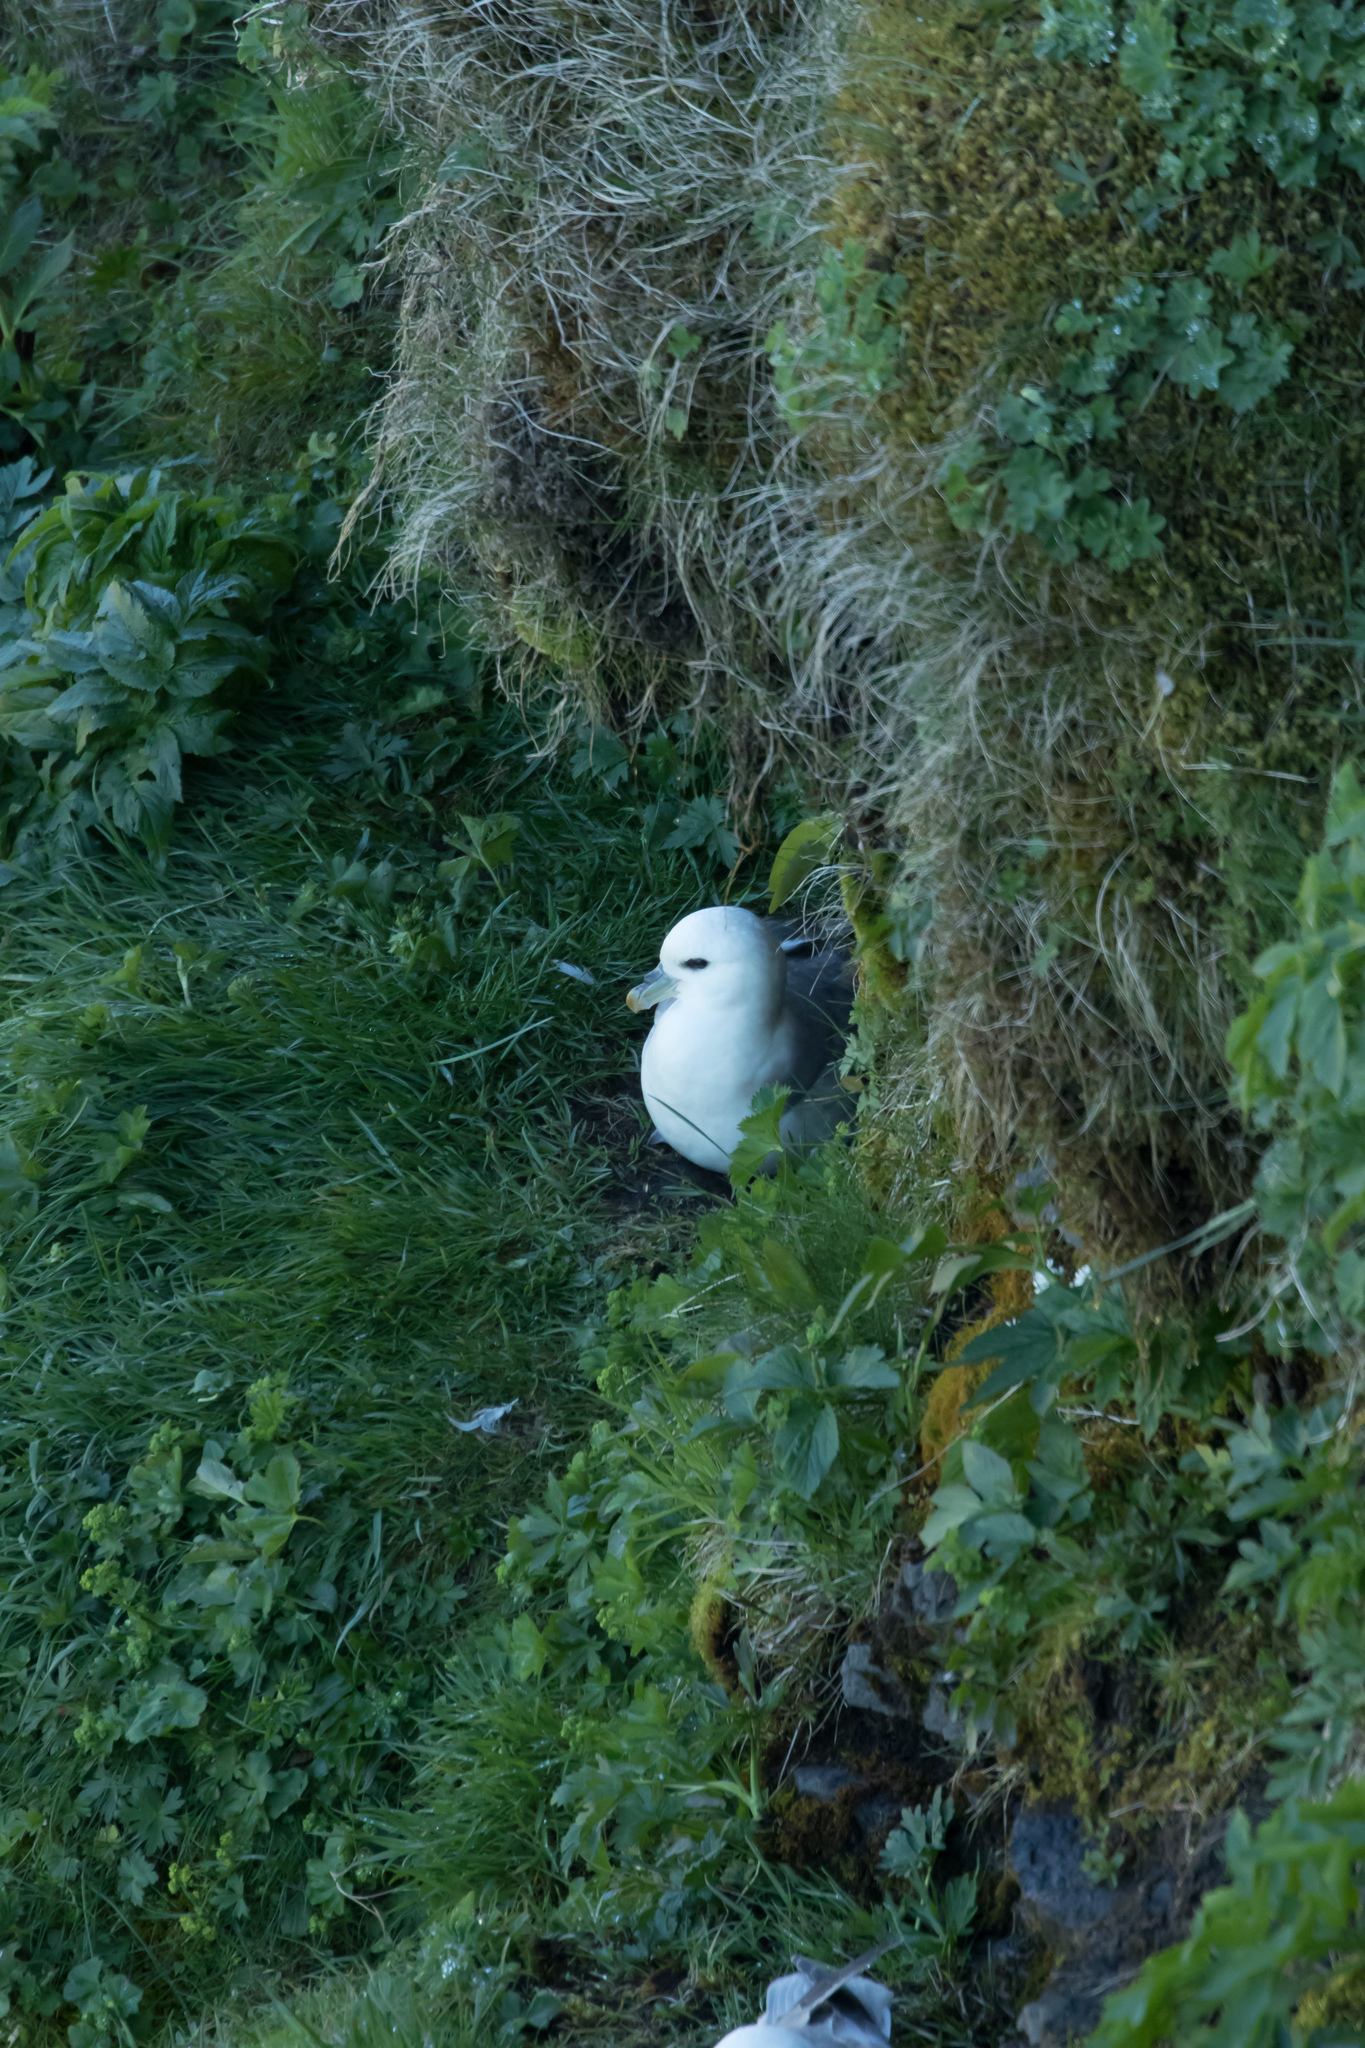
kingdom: Animalia
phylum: Chordata
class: Aves
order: Procellariiformes
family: Procellariidae
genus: Fulmarus
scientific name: Fulmarus glacialis
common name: Northern fulmar
